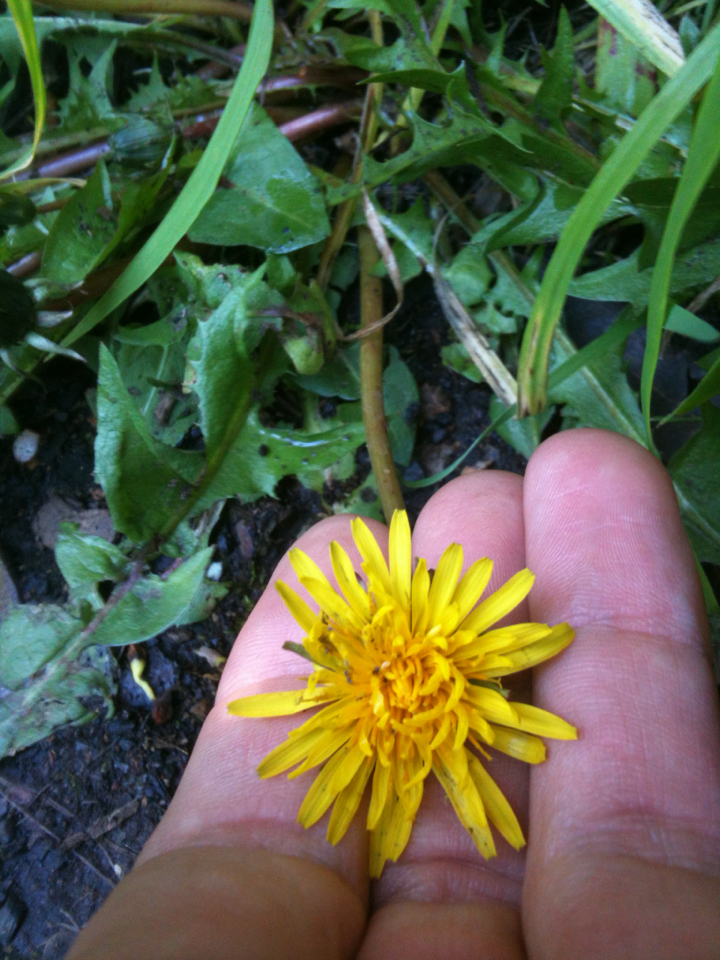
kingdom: Plantae
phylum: Tracheophyta
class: Magnoliopsida
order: Asterales
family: Asteraceae
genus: Taraxacum
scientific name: Taraxacum officinale
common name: Common dandelion
